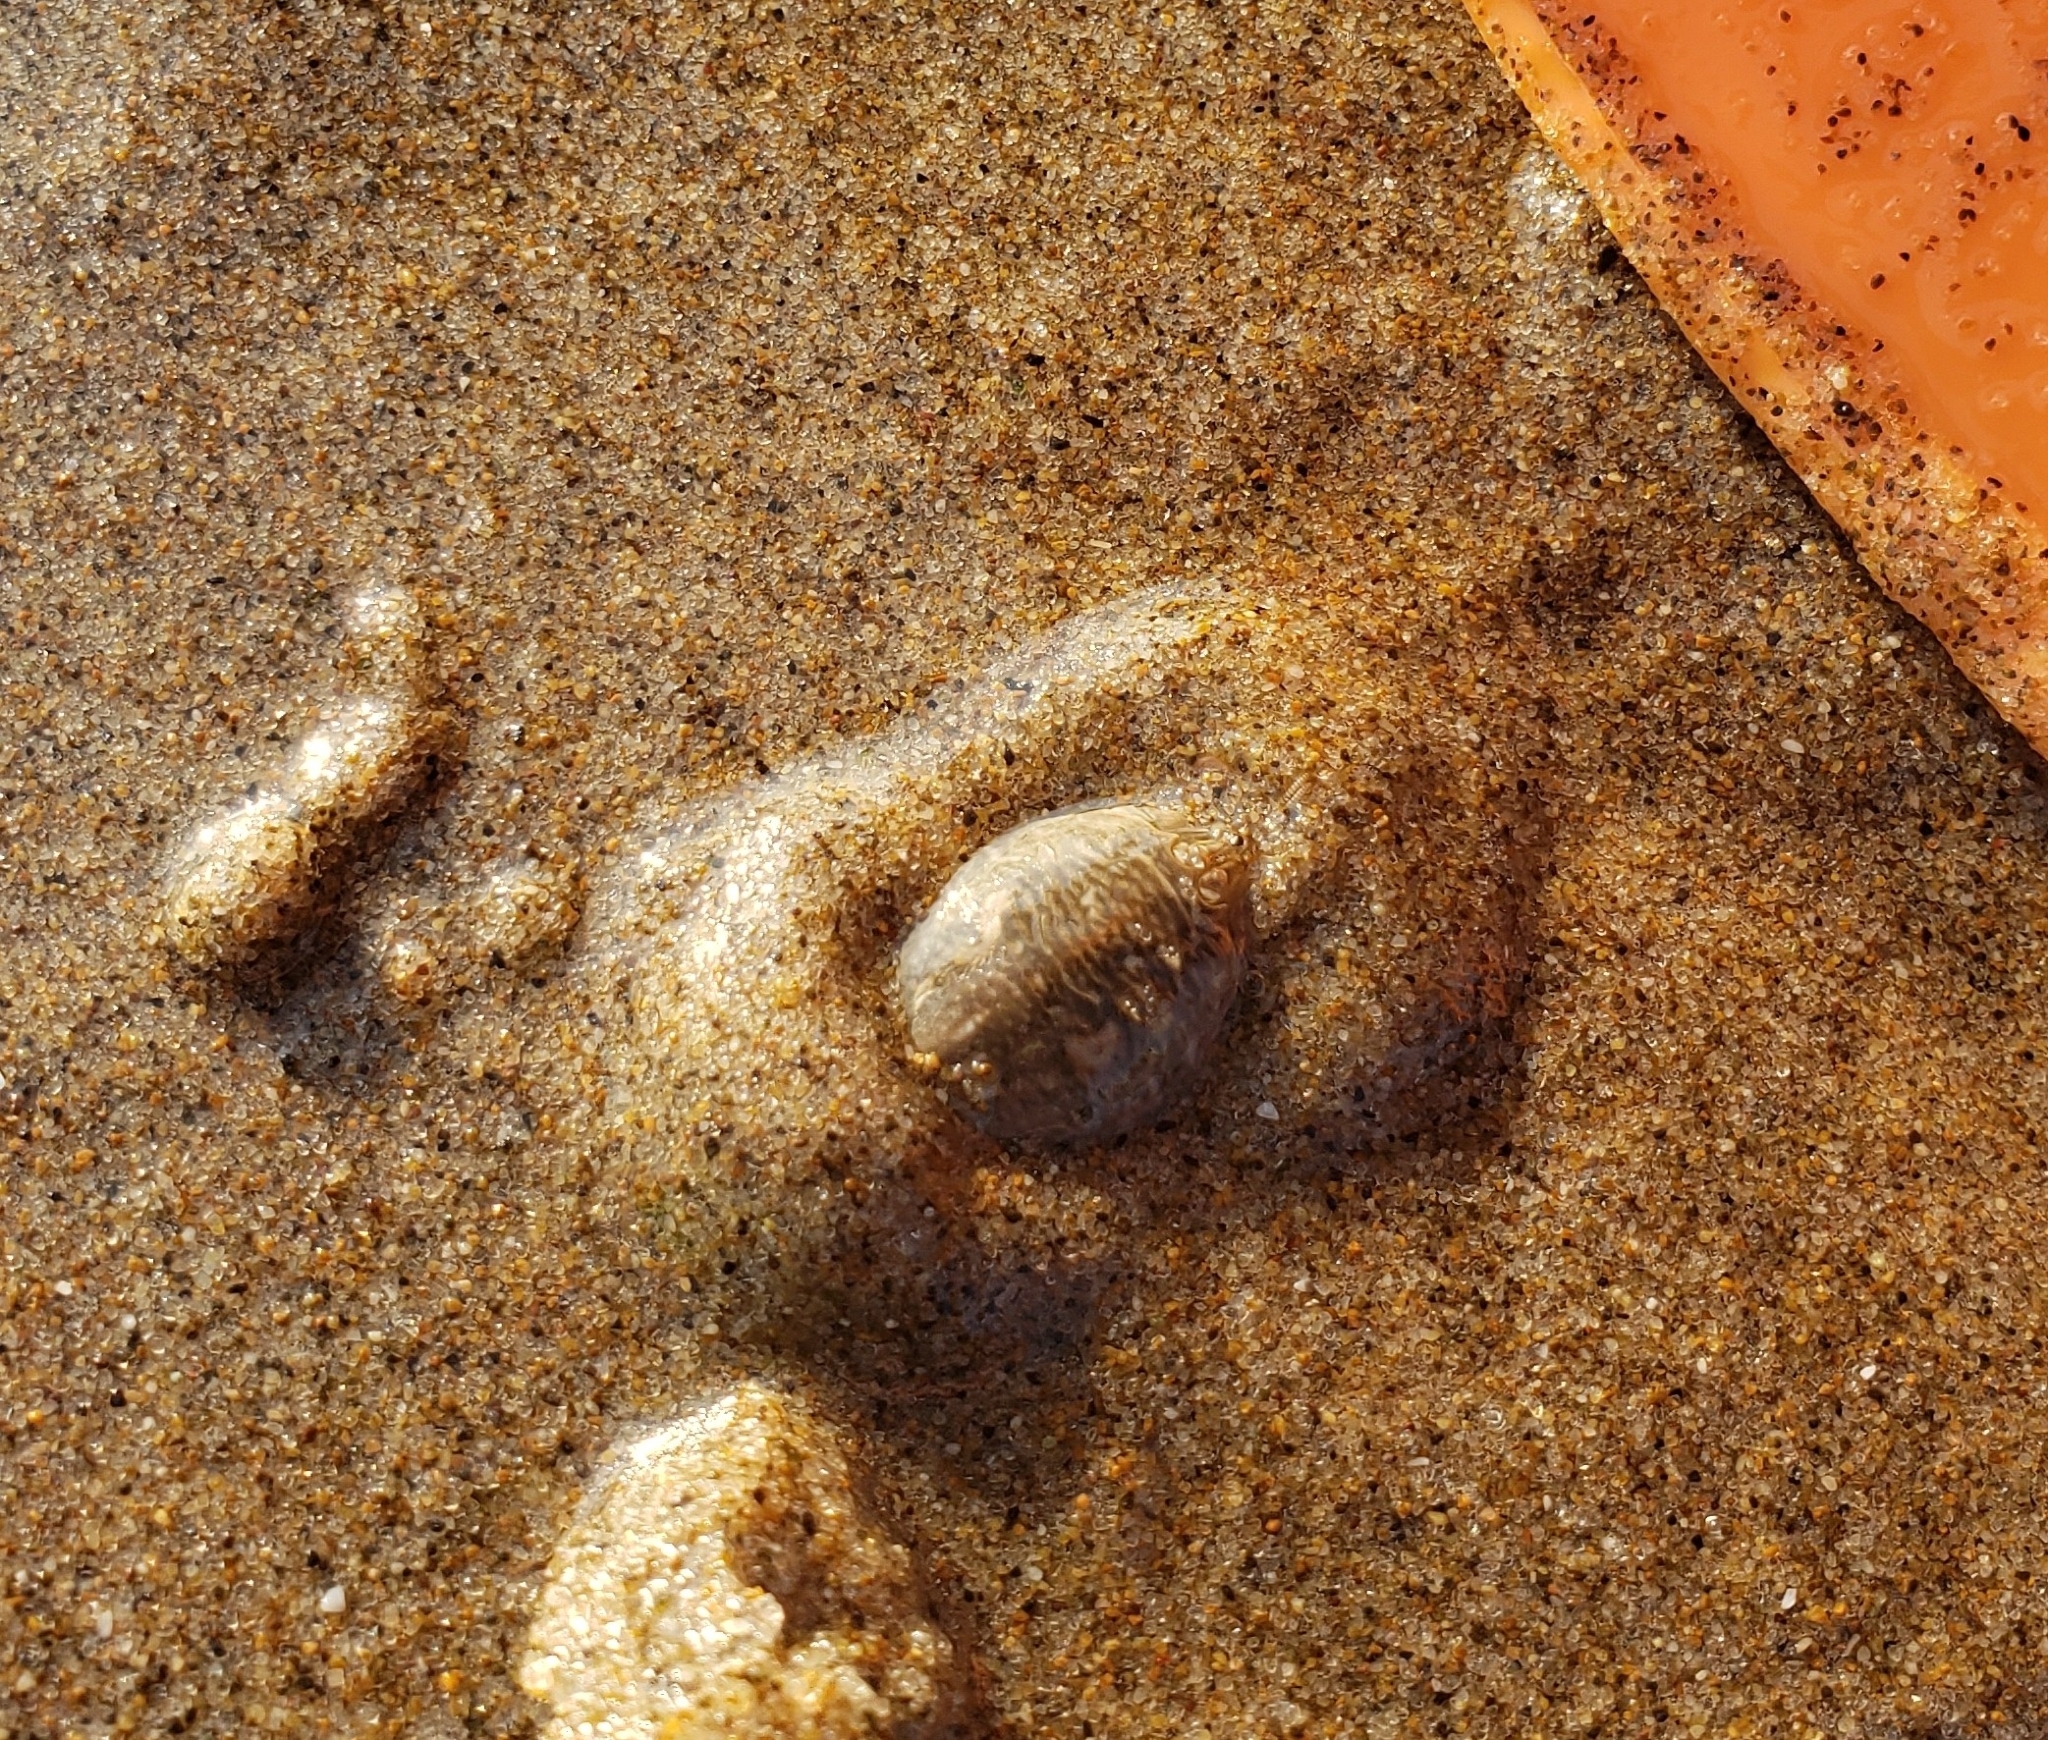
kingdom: Animalia
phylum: Arthropoda
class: Malacostraca
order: Decapoda
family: Hippidae
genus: Emerita
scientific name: Emerita analoga
